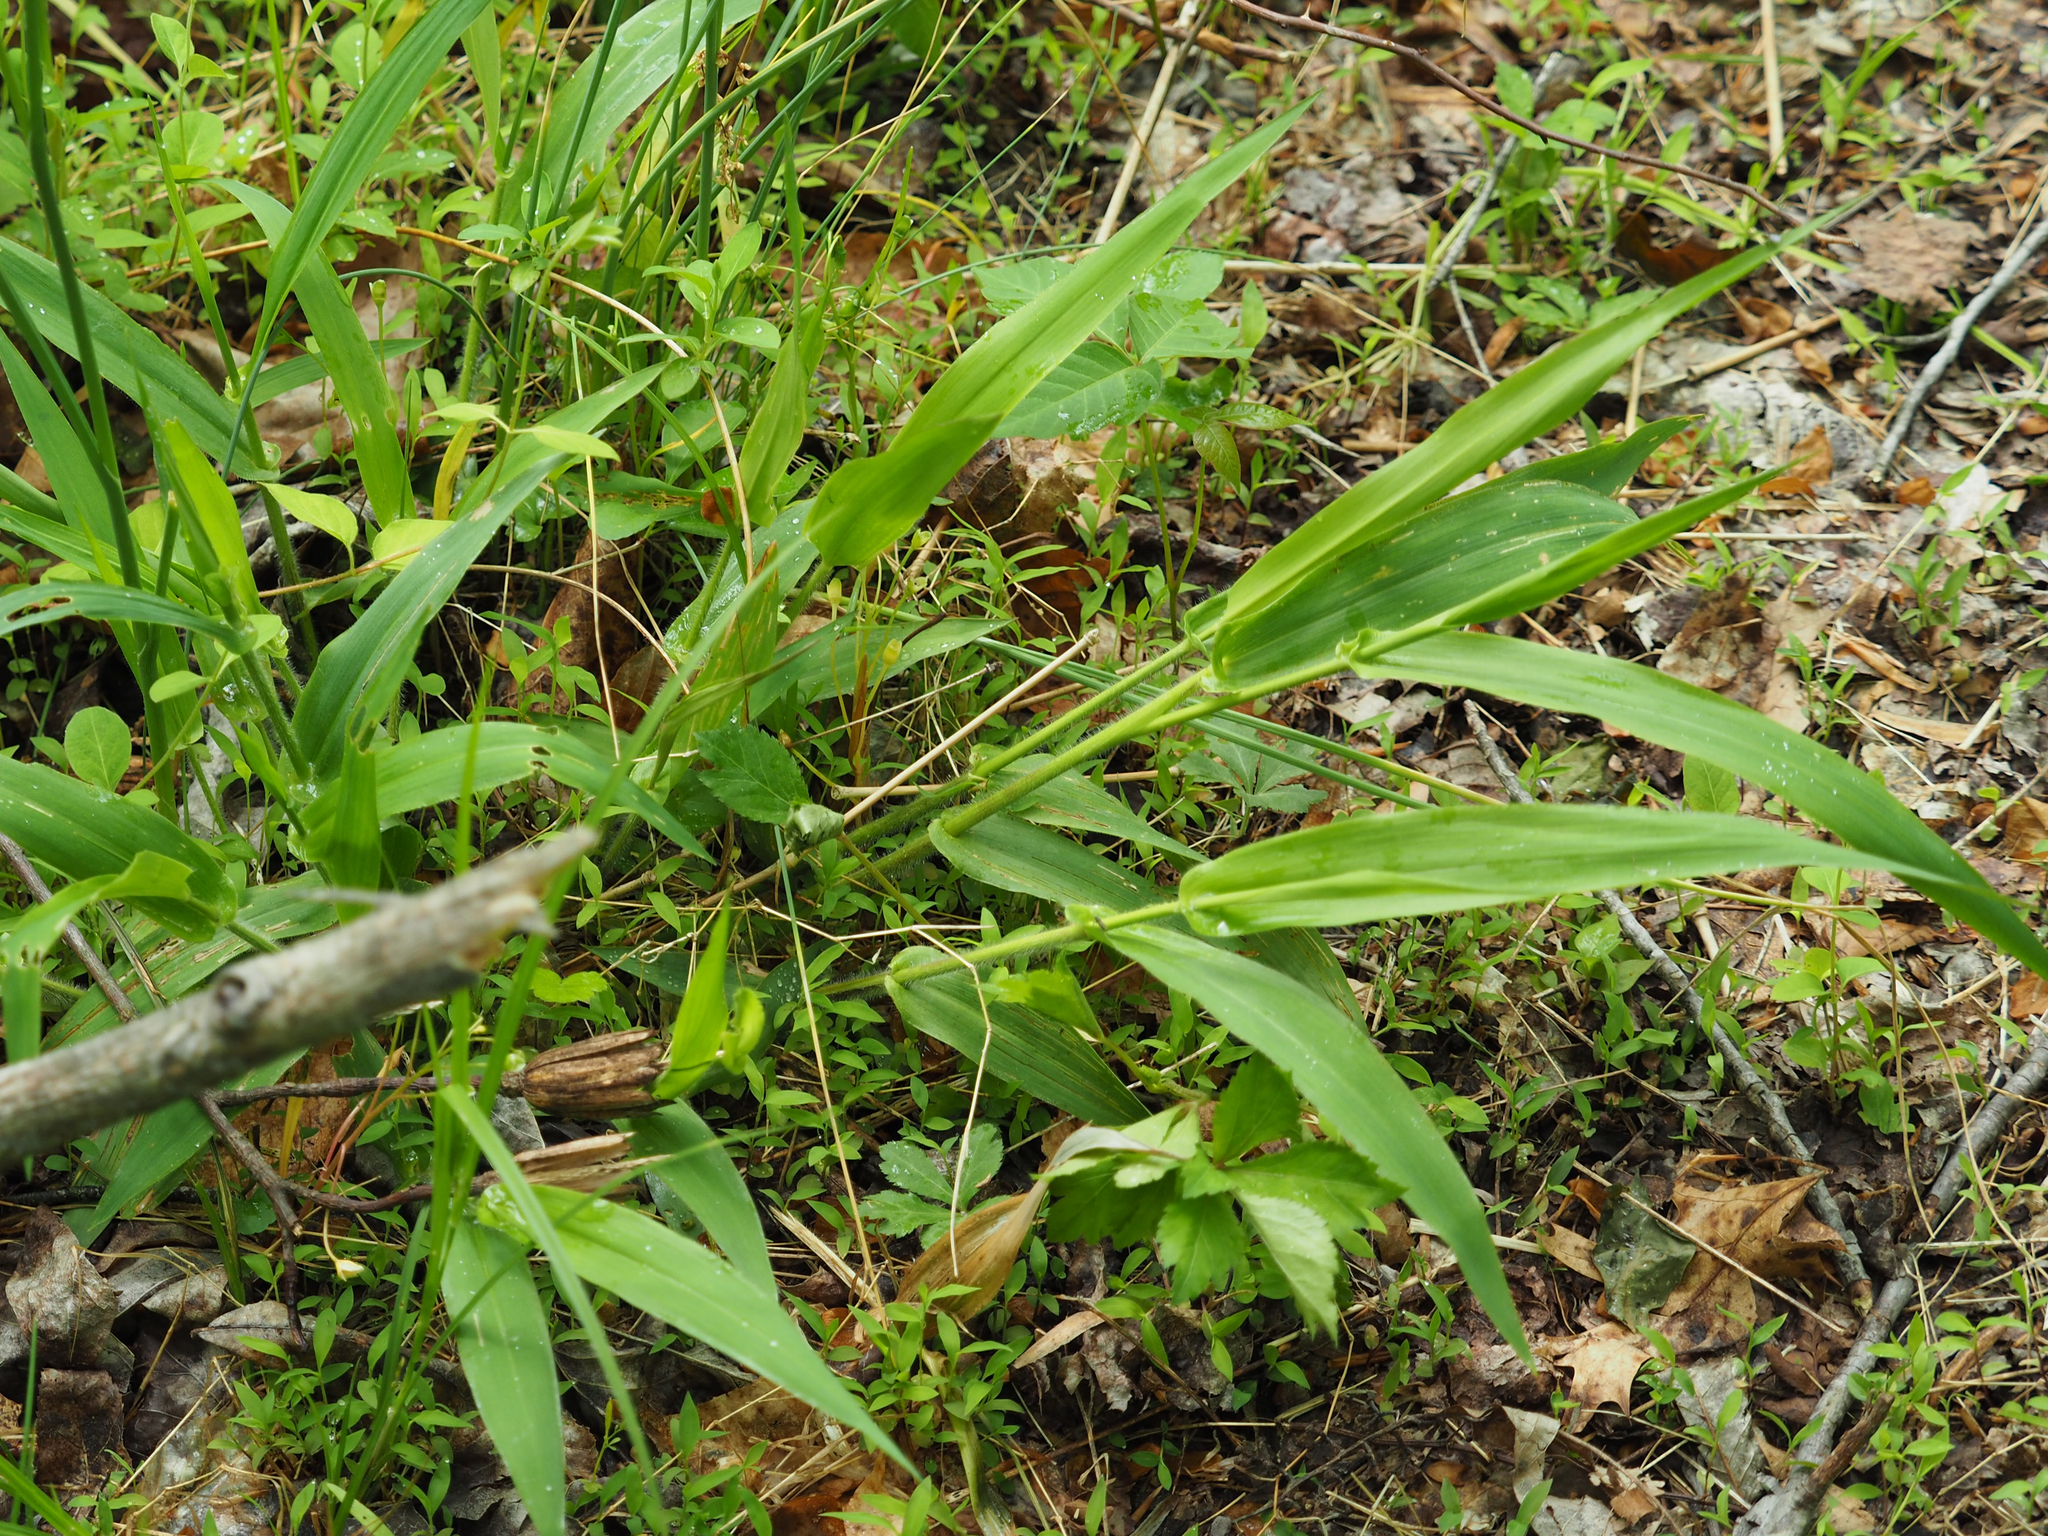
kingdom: Plantae
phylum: Tracheophyta
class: Liliopsida
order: Poales
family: Poaceae
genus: Dichanthelium
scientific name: Dichanthelium clandestinum
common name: Deer-tongue grass
